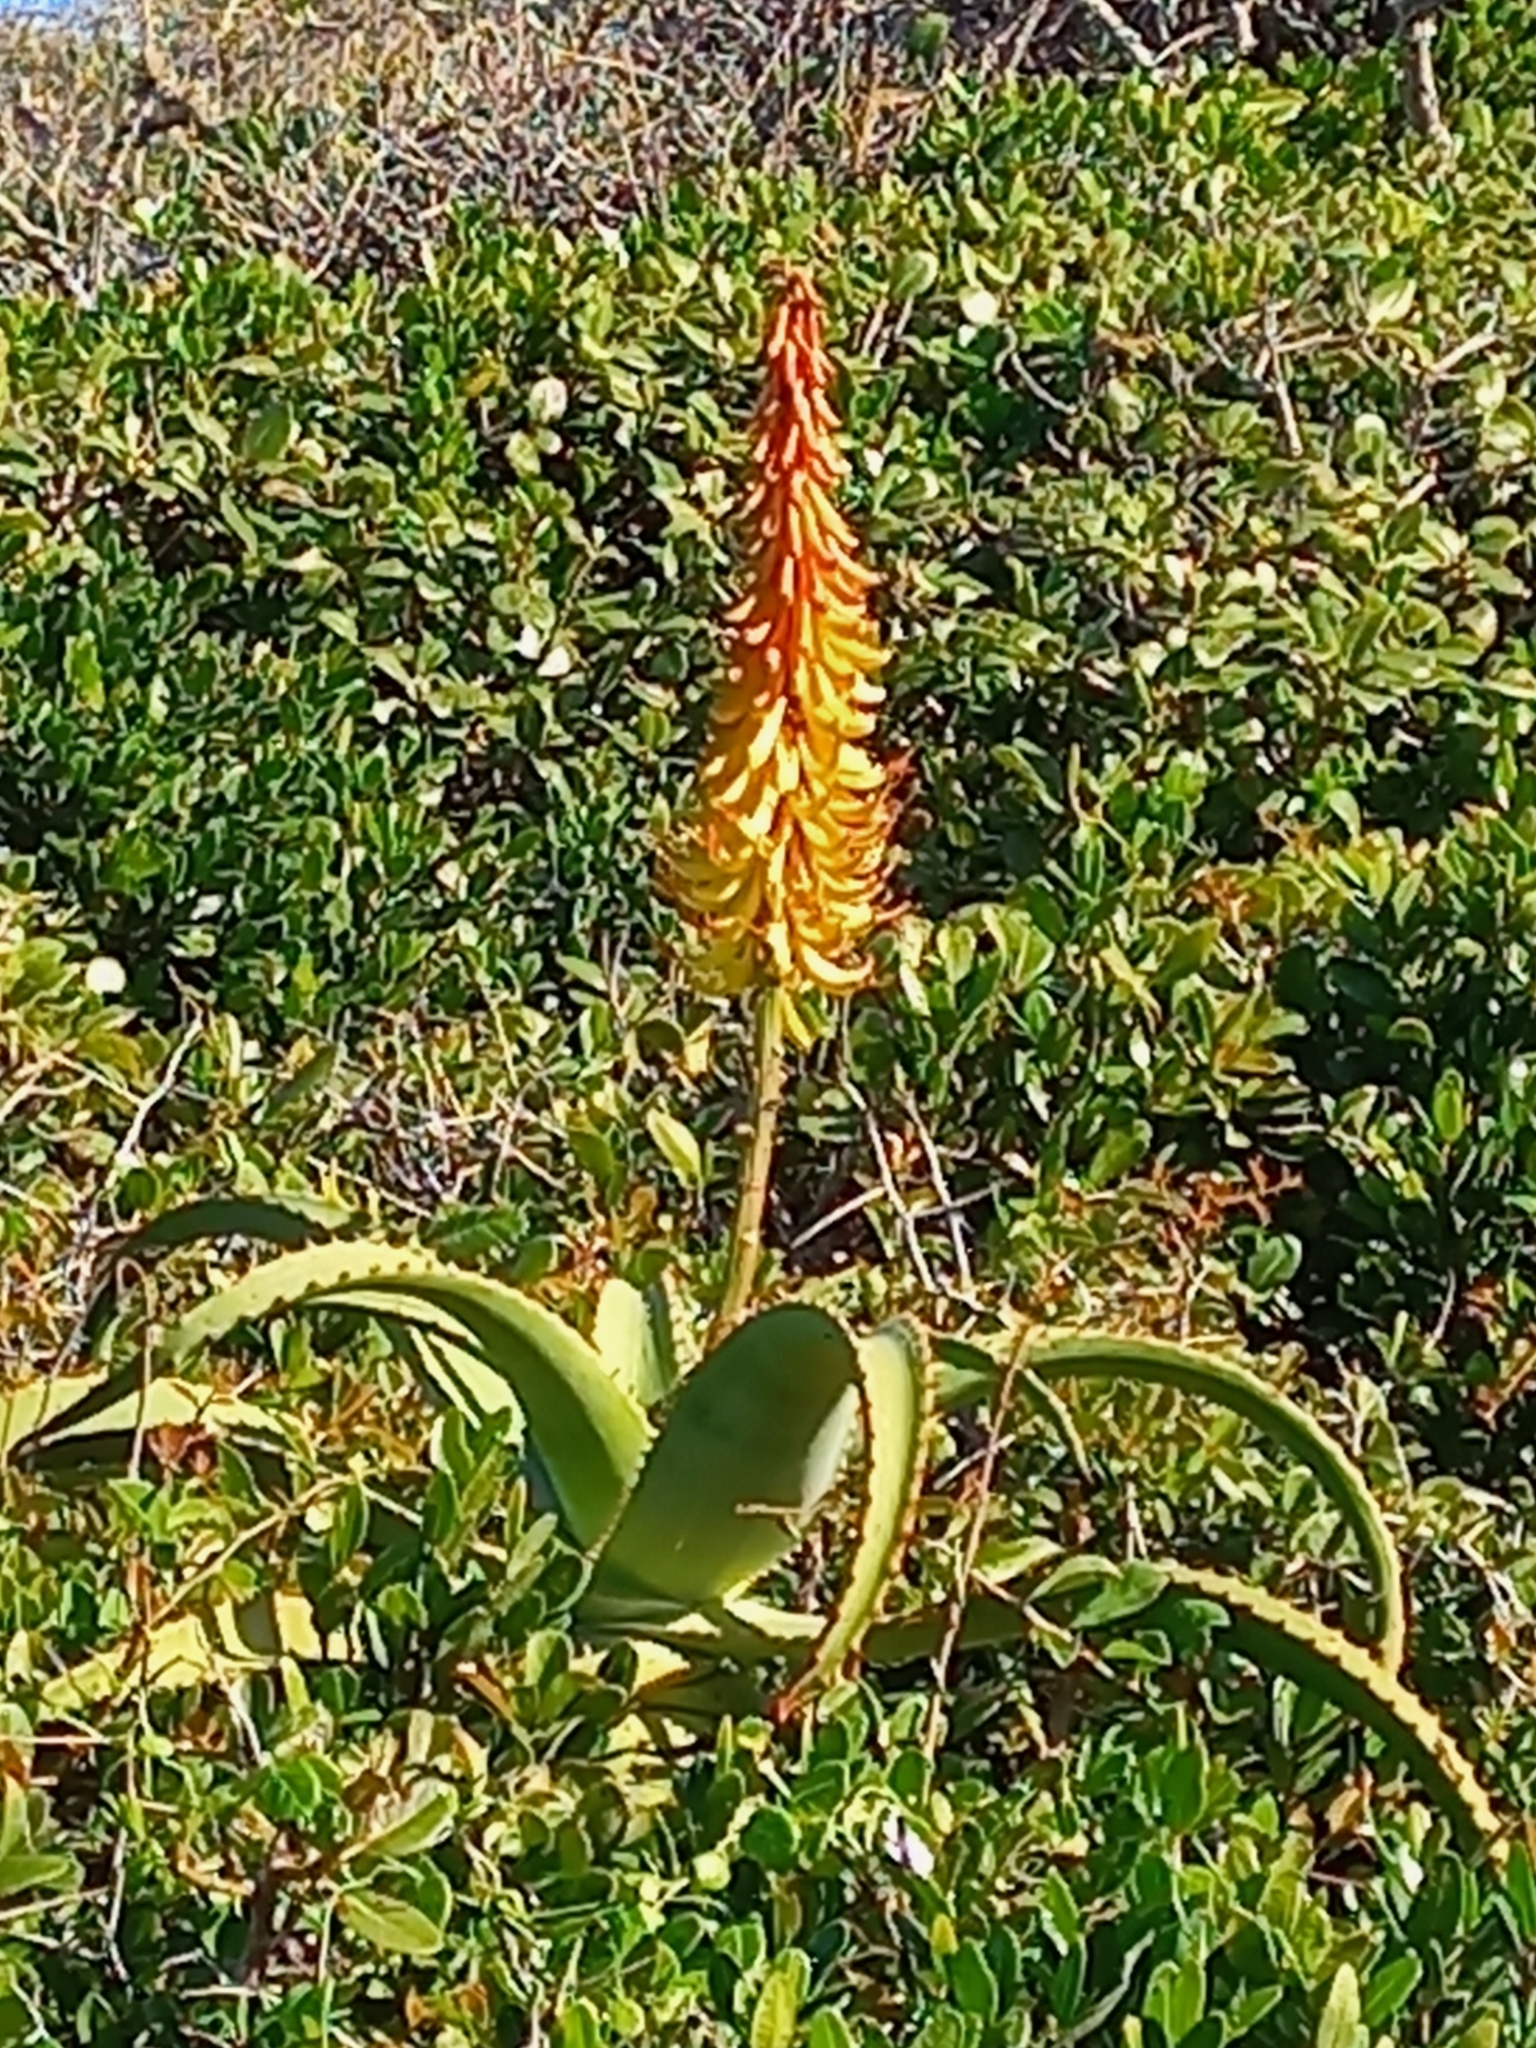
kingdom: Plantae
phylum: Tracheophyta
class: Liliopsida
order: Asparagales
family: Asphodelaceae
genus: Aloe
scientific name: Aloe africana
